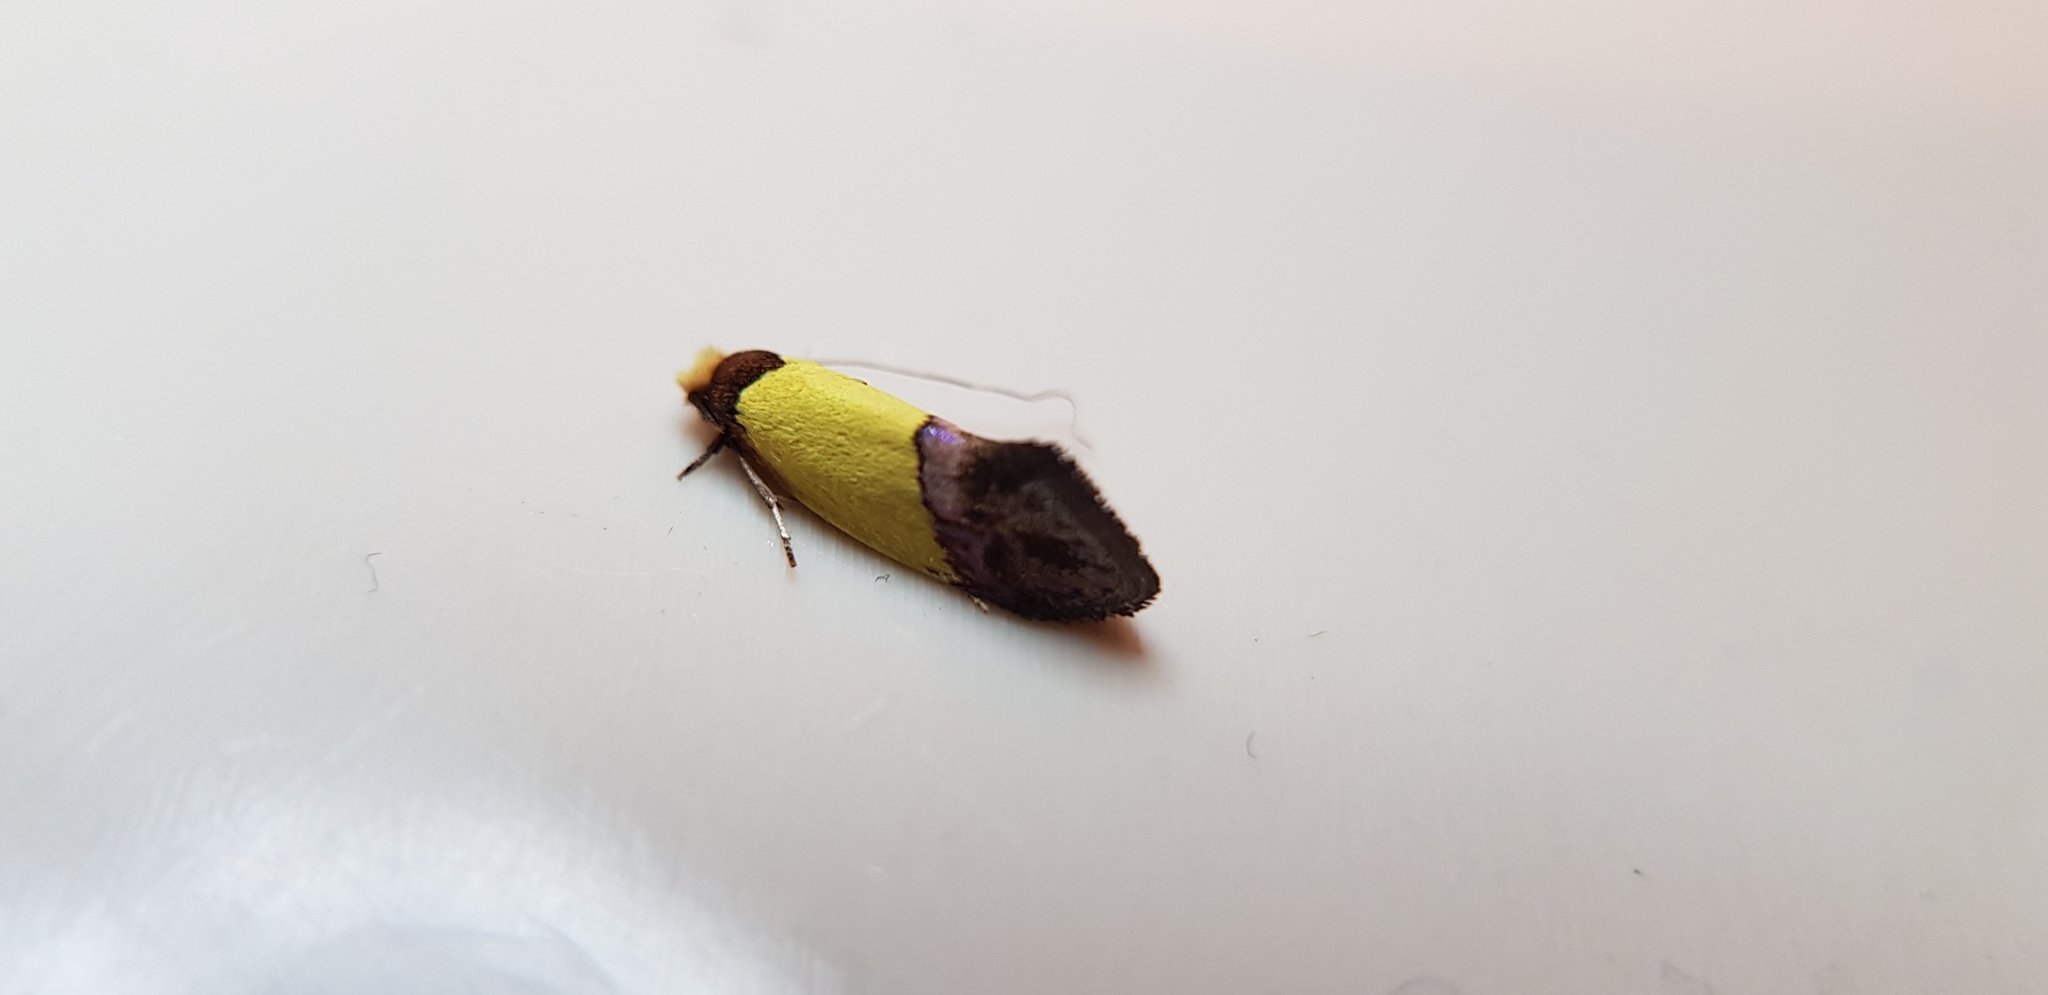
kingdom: Animalia
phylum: Arthropoda
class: Insecta
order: Lepidoptera
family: Tineidae
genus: Edosa
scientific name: Edosa xystidophora
